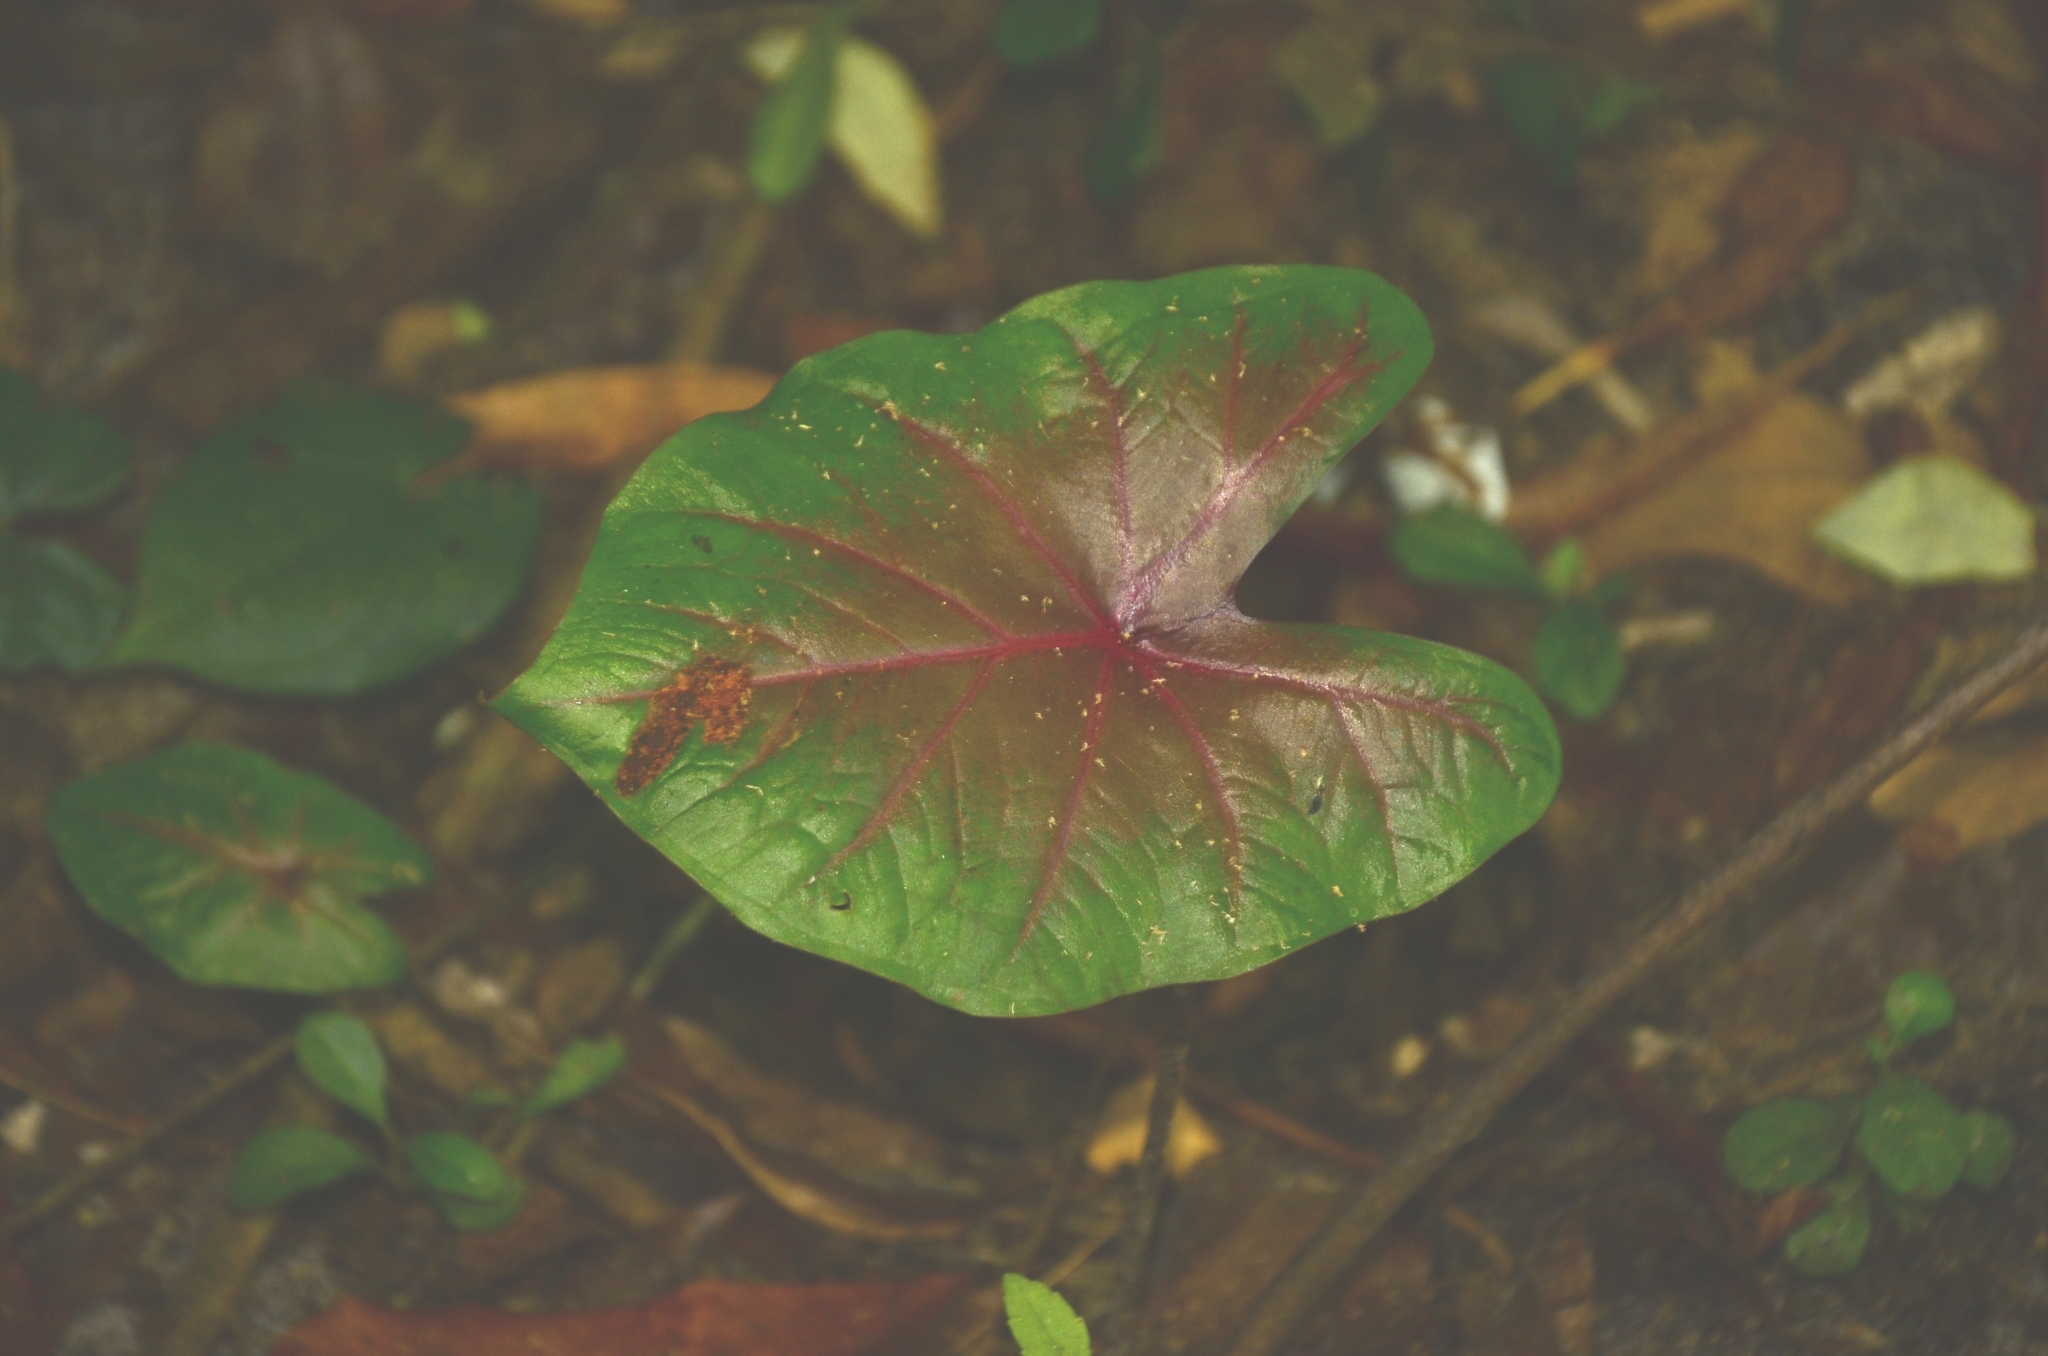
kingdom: Plantae
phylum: Tracheophyta
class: Liliopsida
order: Alismatales
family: Araceae
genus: Caladium
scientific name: Caladium bicolor
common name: Artist's pallet
